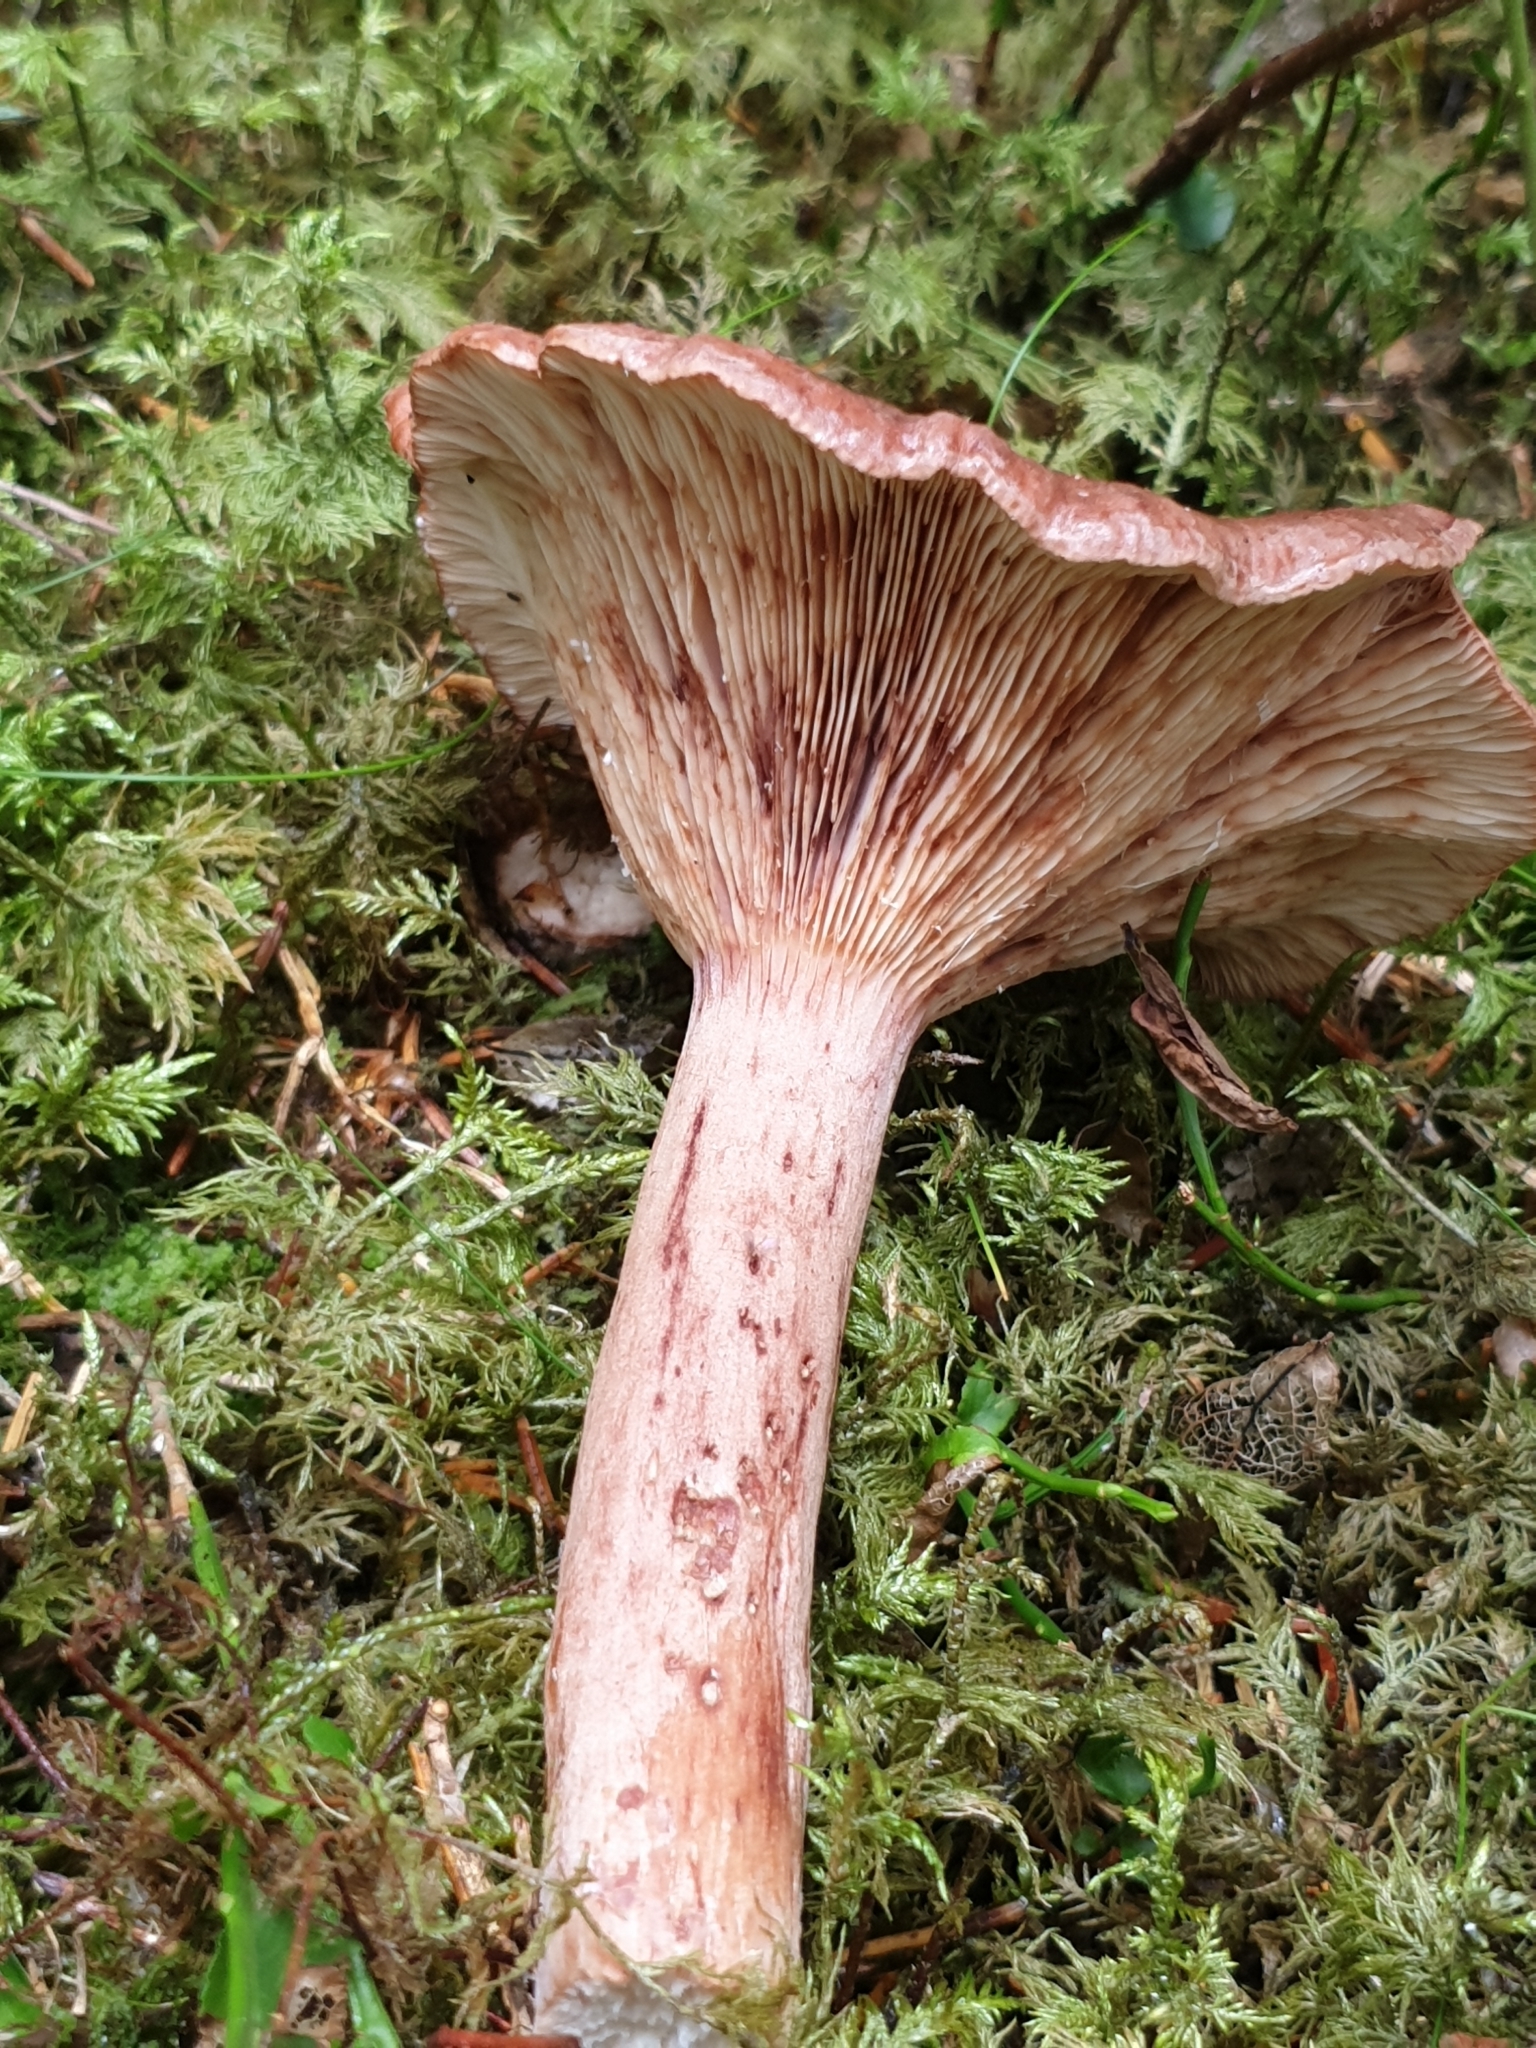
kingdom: Fungi
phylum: Basidiomycota
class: Agaricomycetes
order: Russulales
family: Russulaceae
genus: Lactarius
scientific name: Lactarius rufus
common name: Rufous milk-cap
